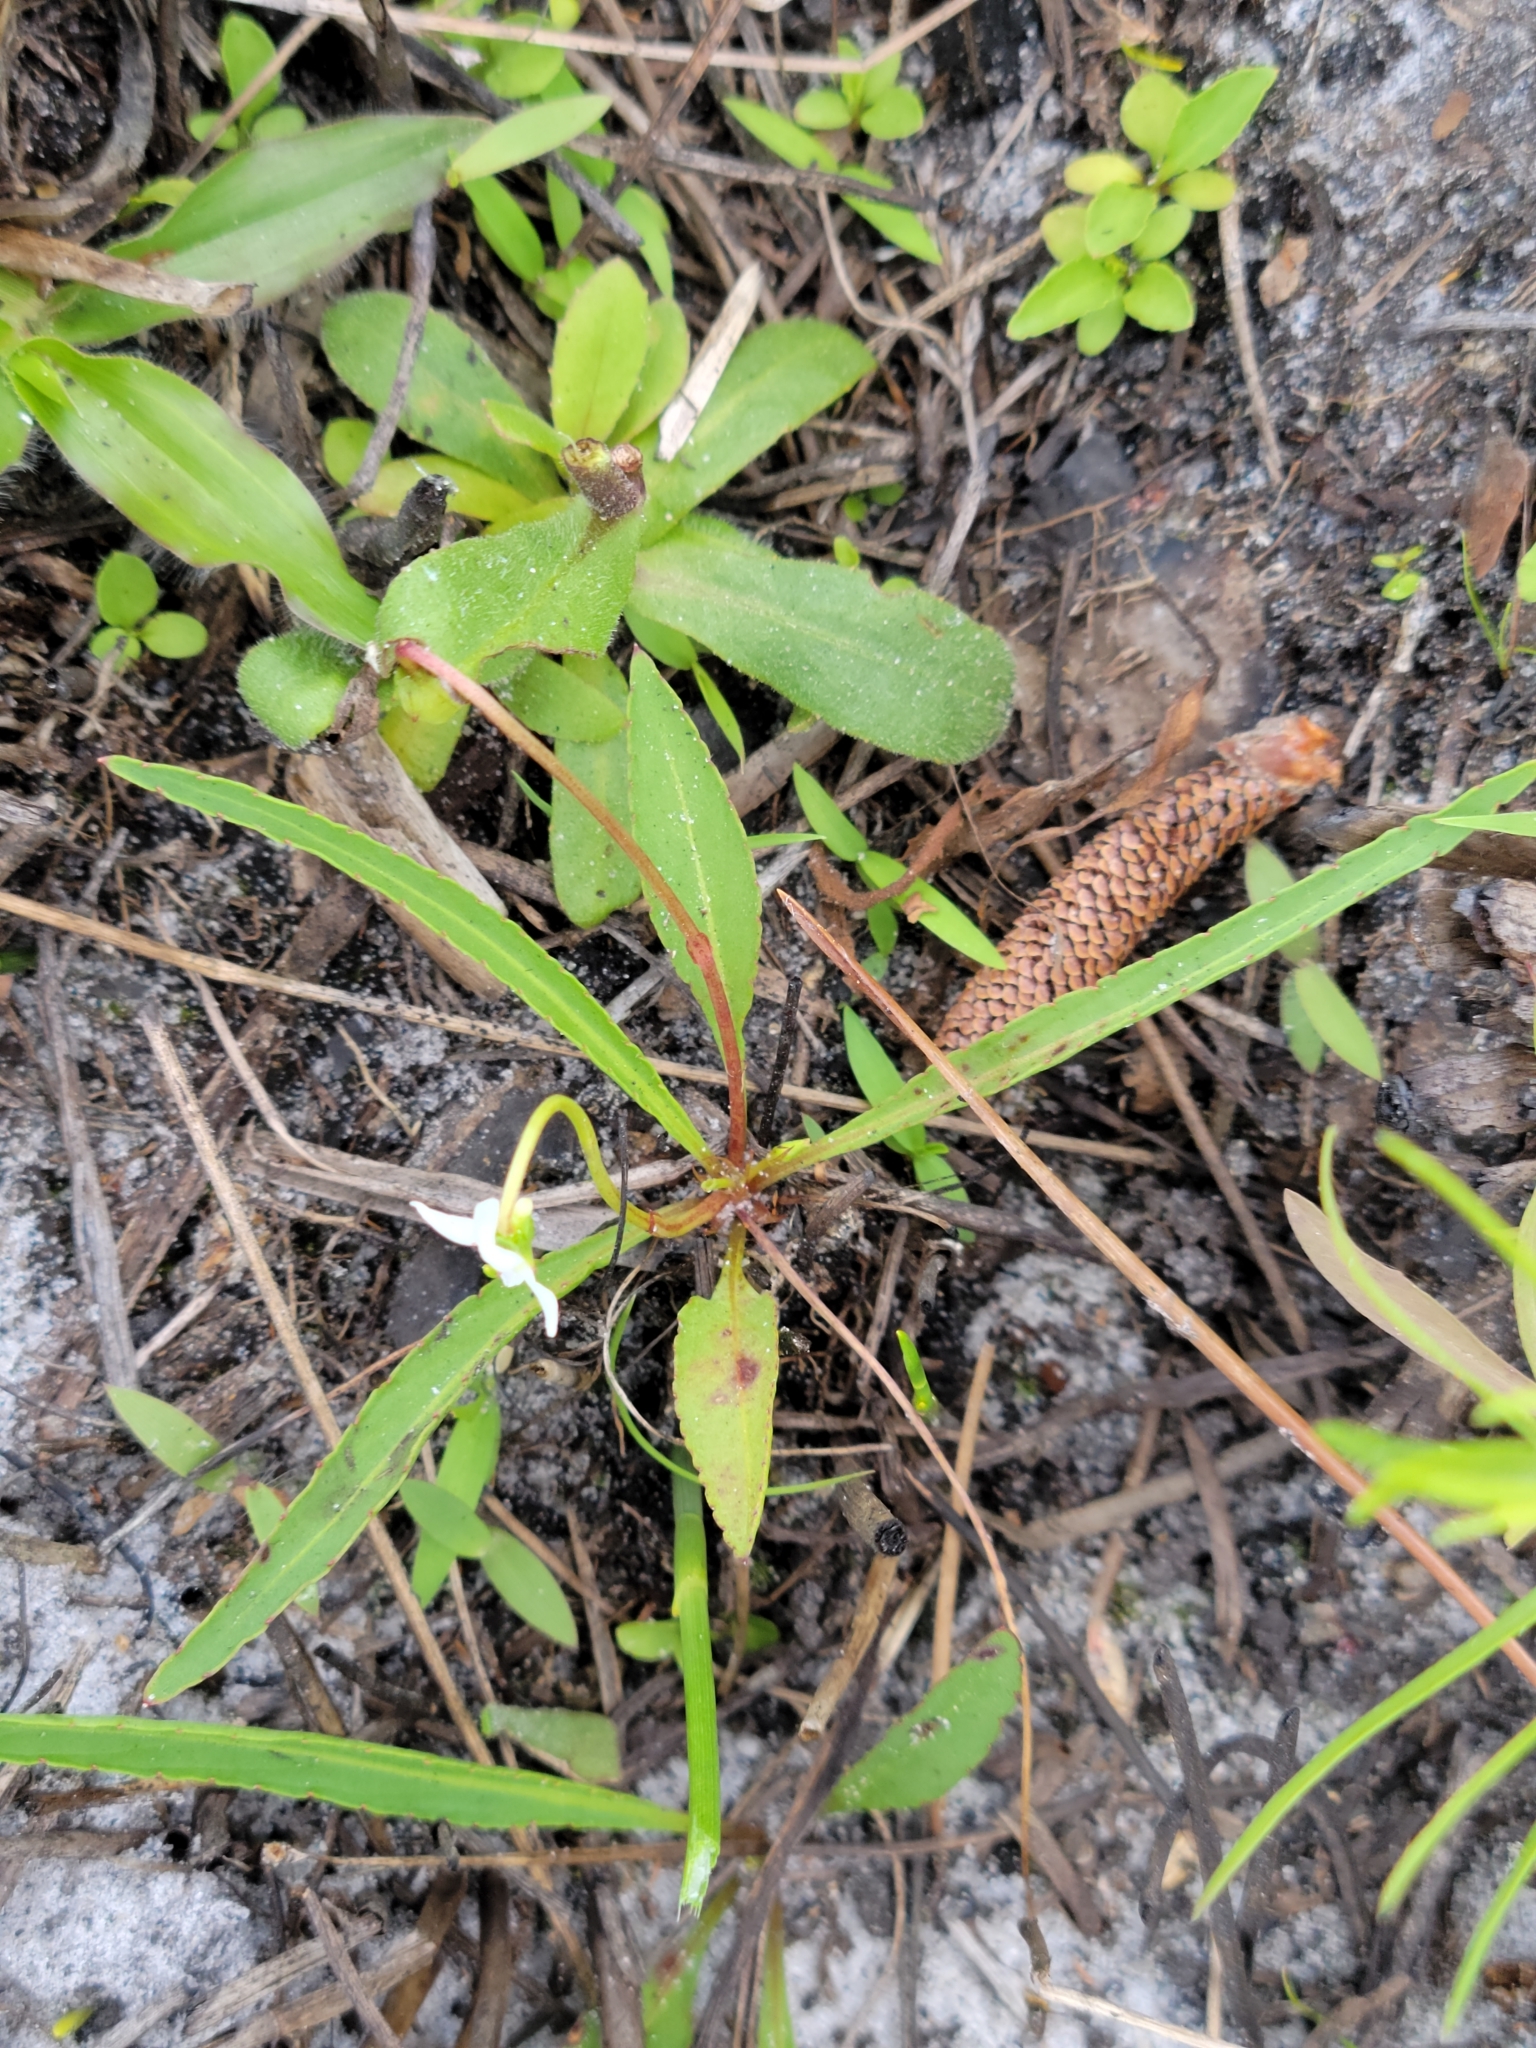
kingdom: Plantae
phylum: Tracheophyta
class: Magnoliopsida
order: Malpighiales
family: Violaceae
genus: Viola
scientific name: Viola vittata
